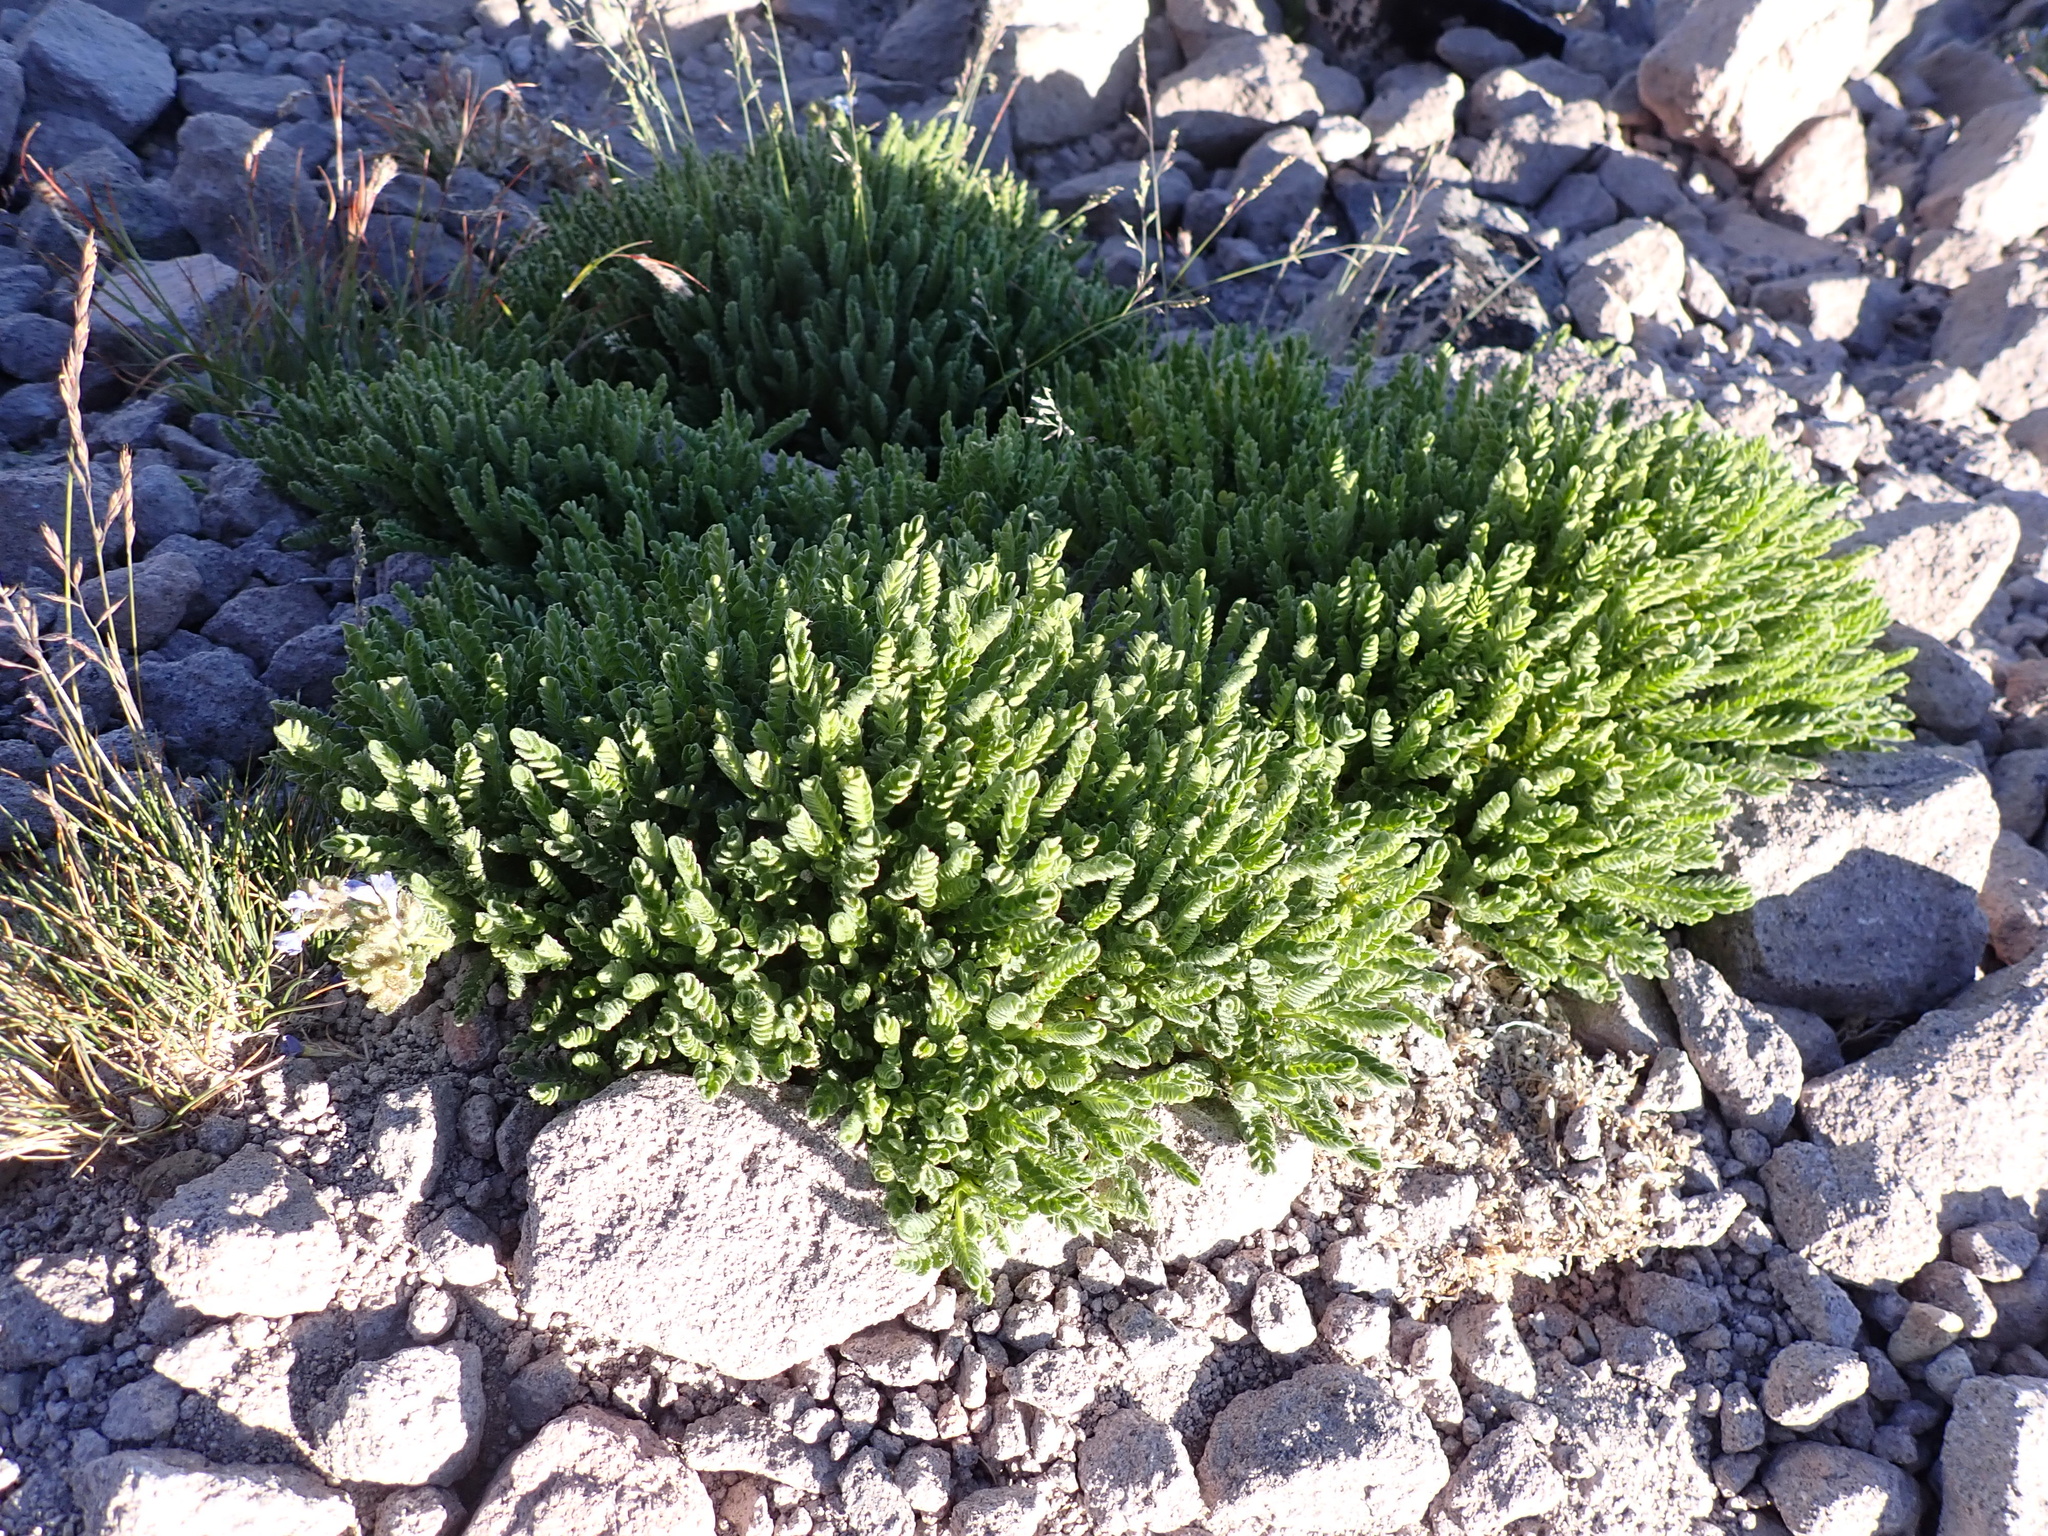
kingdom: Plantae
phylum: Tracheophyta
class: Magnoliopsida
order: Ericales
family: Polemoniaceae
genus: Polemonium
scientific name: Polemonium elegans
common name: Elegant jacob's-ladder
